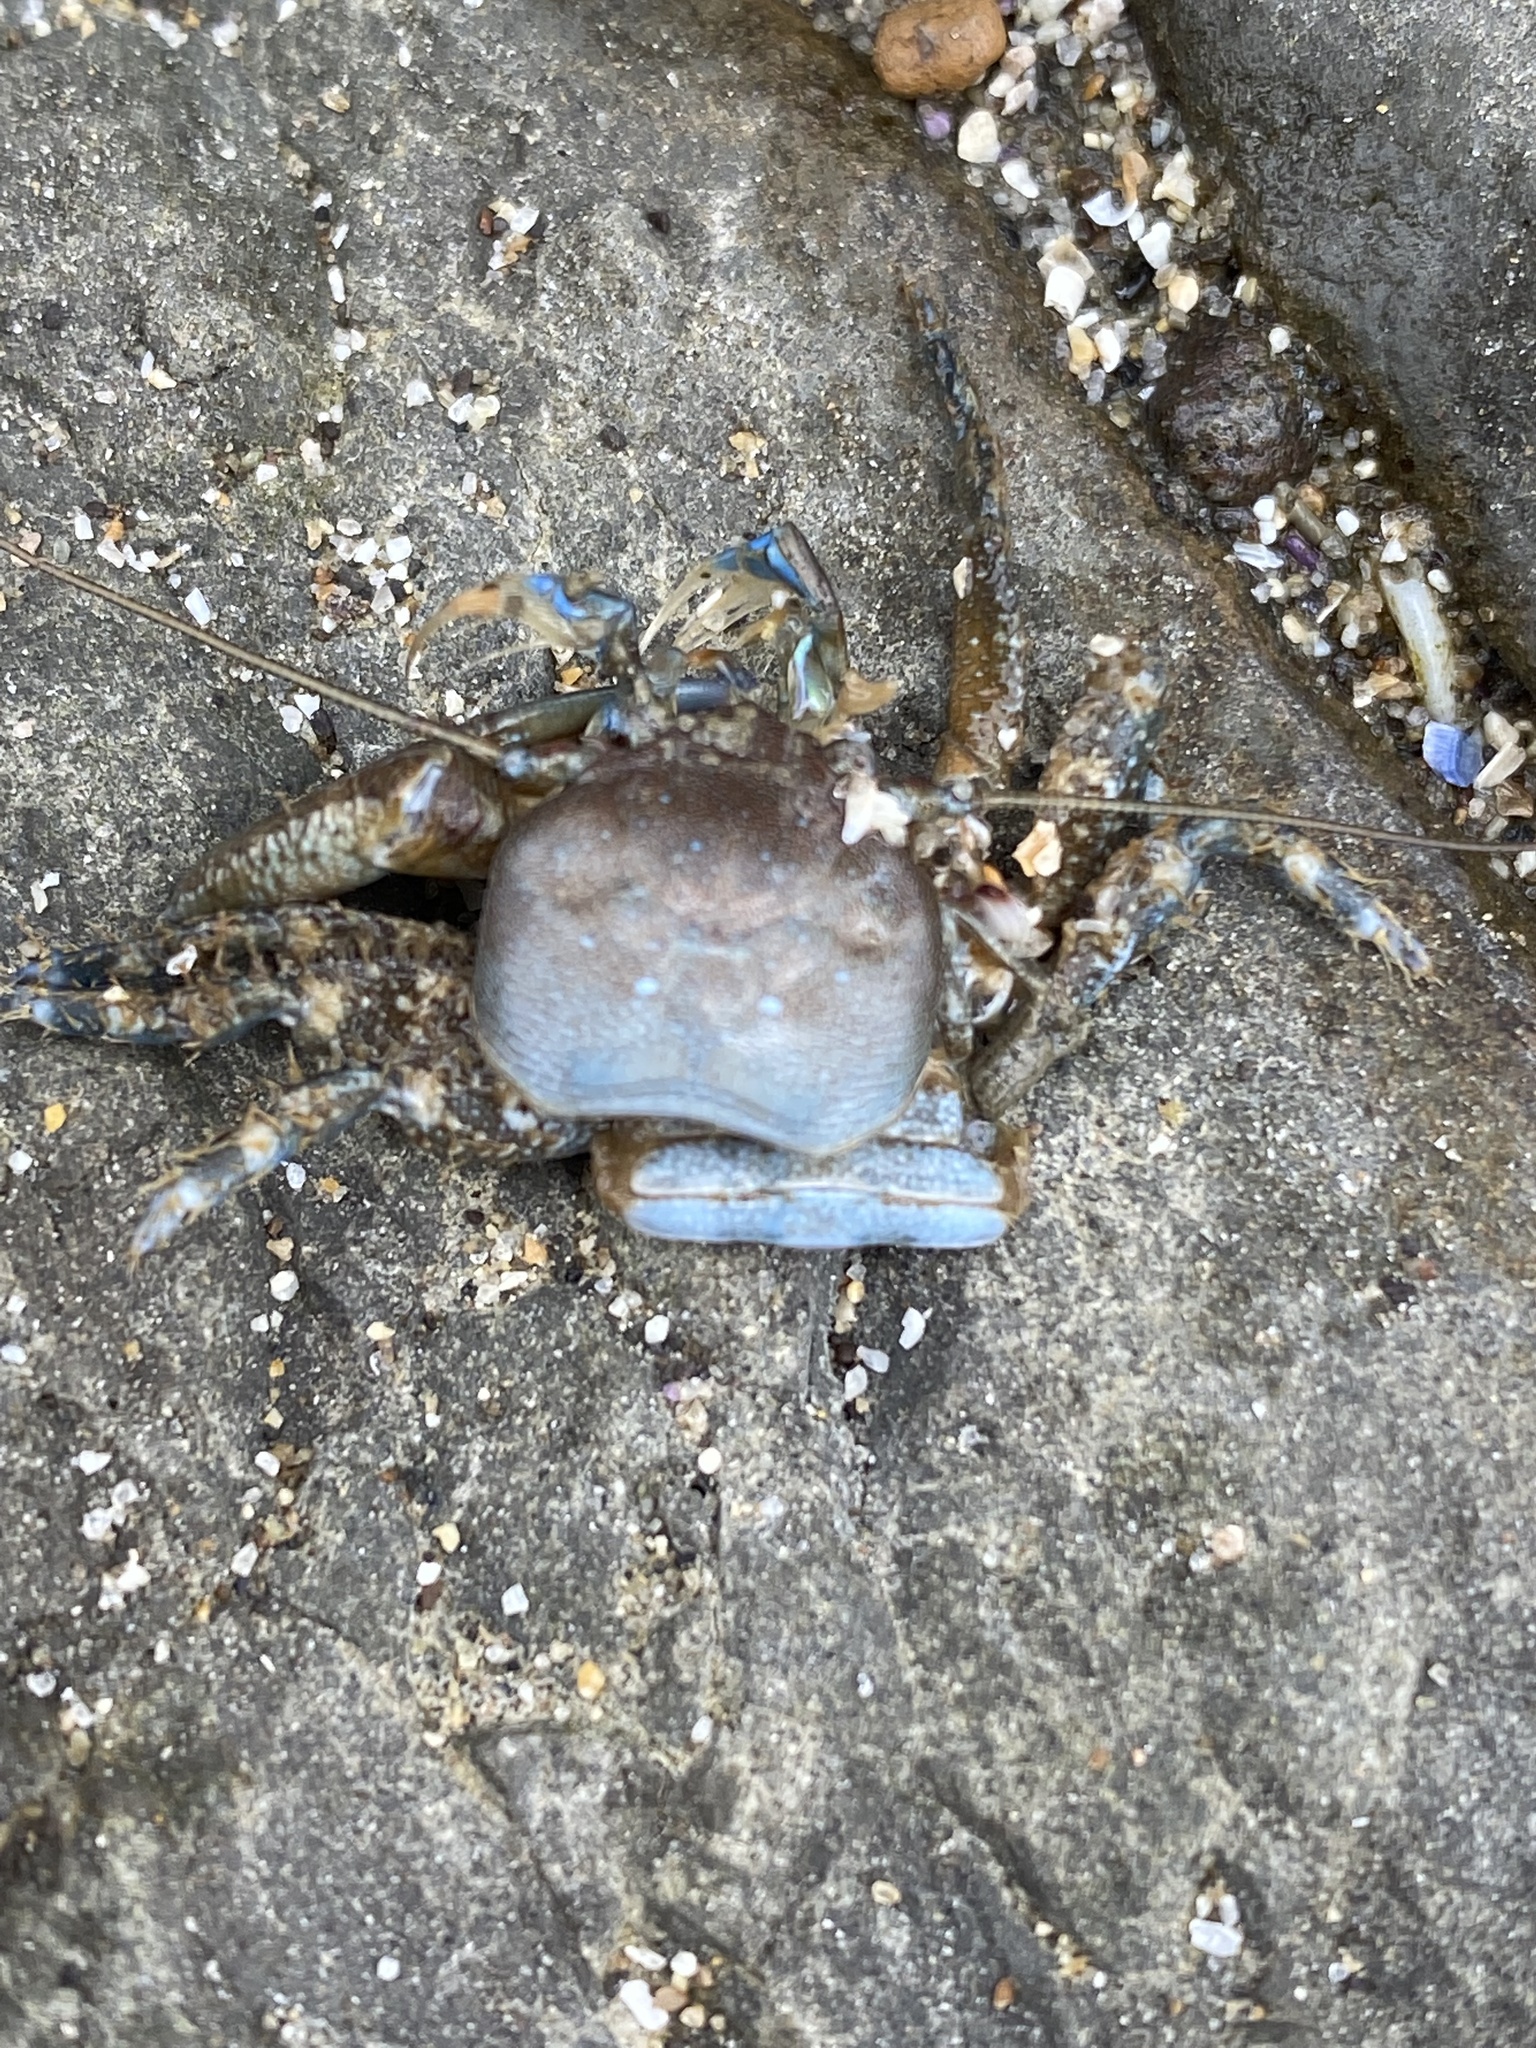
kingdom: Animalia
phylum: Arthropoda
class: Malacostraca
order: Decapoda
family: Porcellanidae
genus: Petrolisthes
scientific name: Petrolisthes eriomerus
